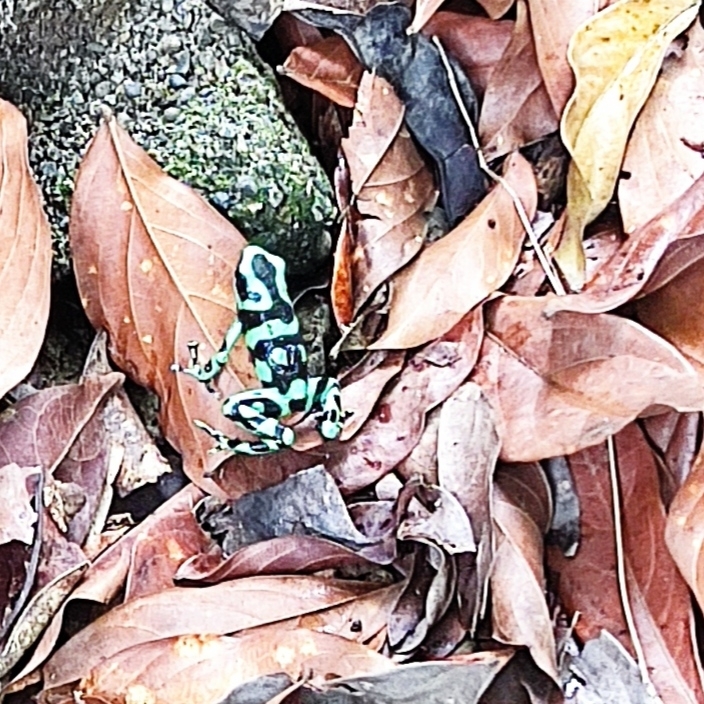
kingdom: Animalia
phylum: Chordata
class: Amphibia
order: Anura
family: Dendrobatidae
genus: Dendrobates
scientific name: Dendrobates auratus
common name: Green and black poison dart frog
